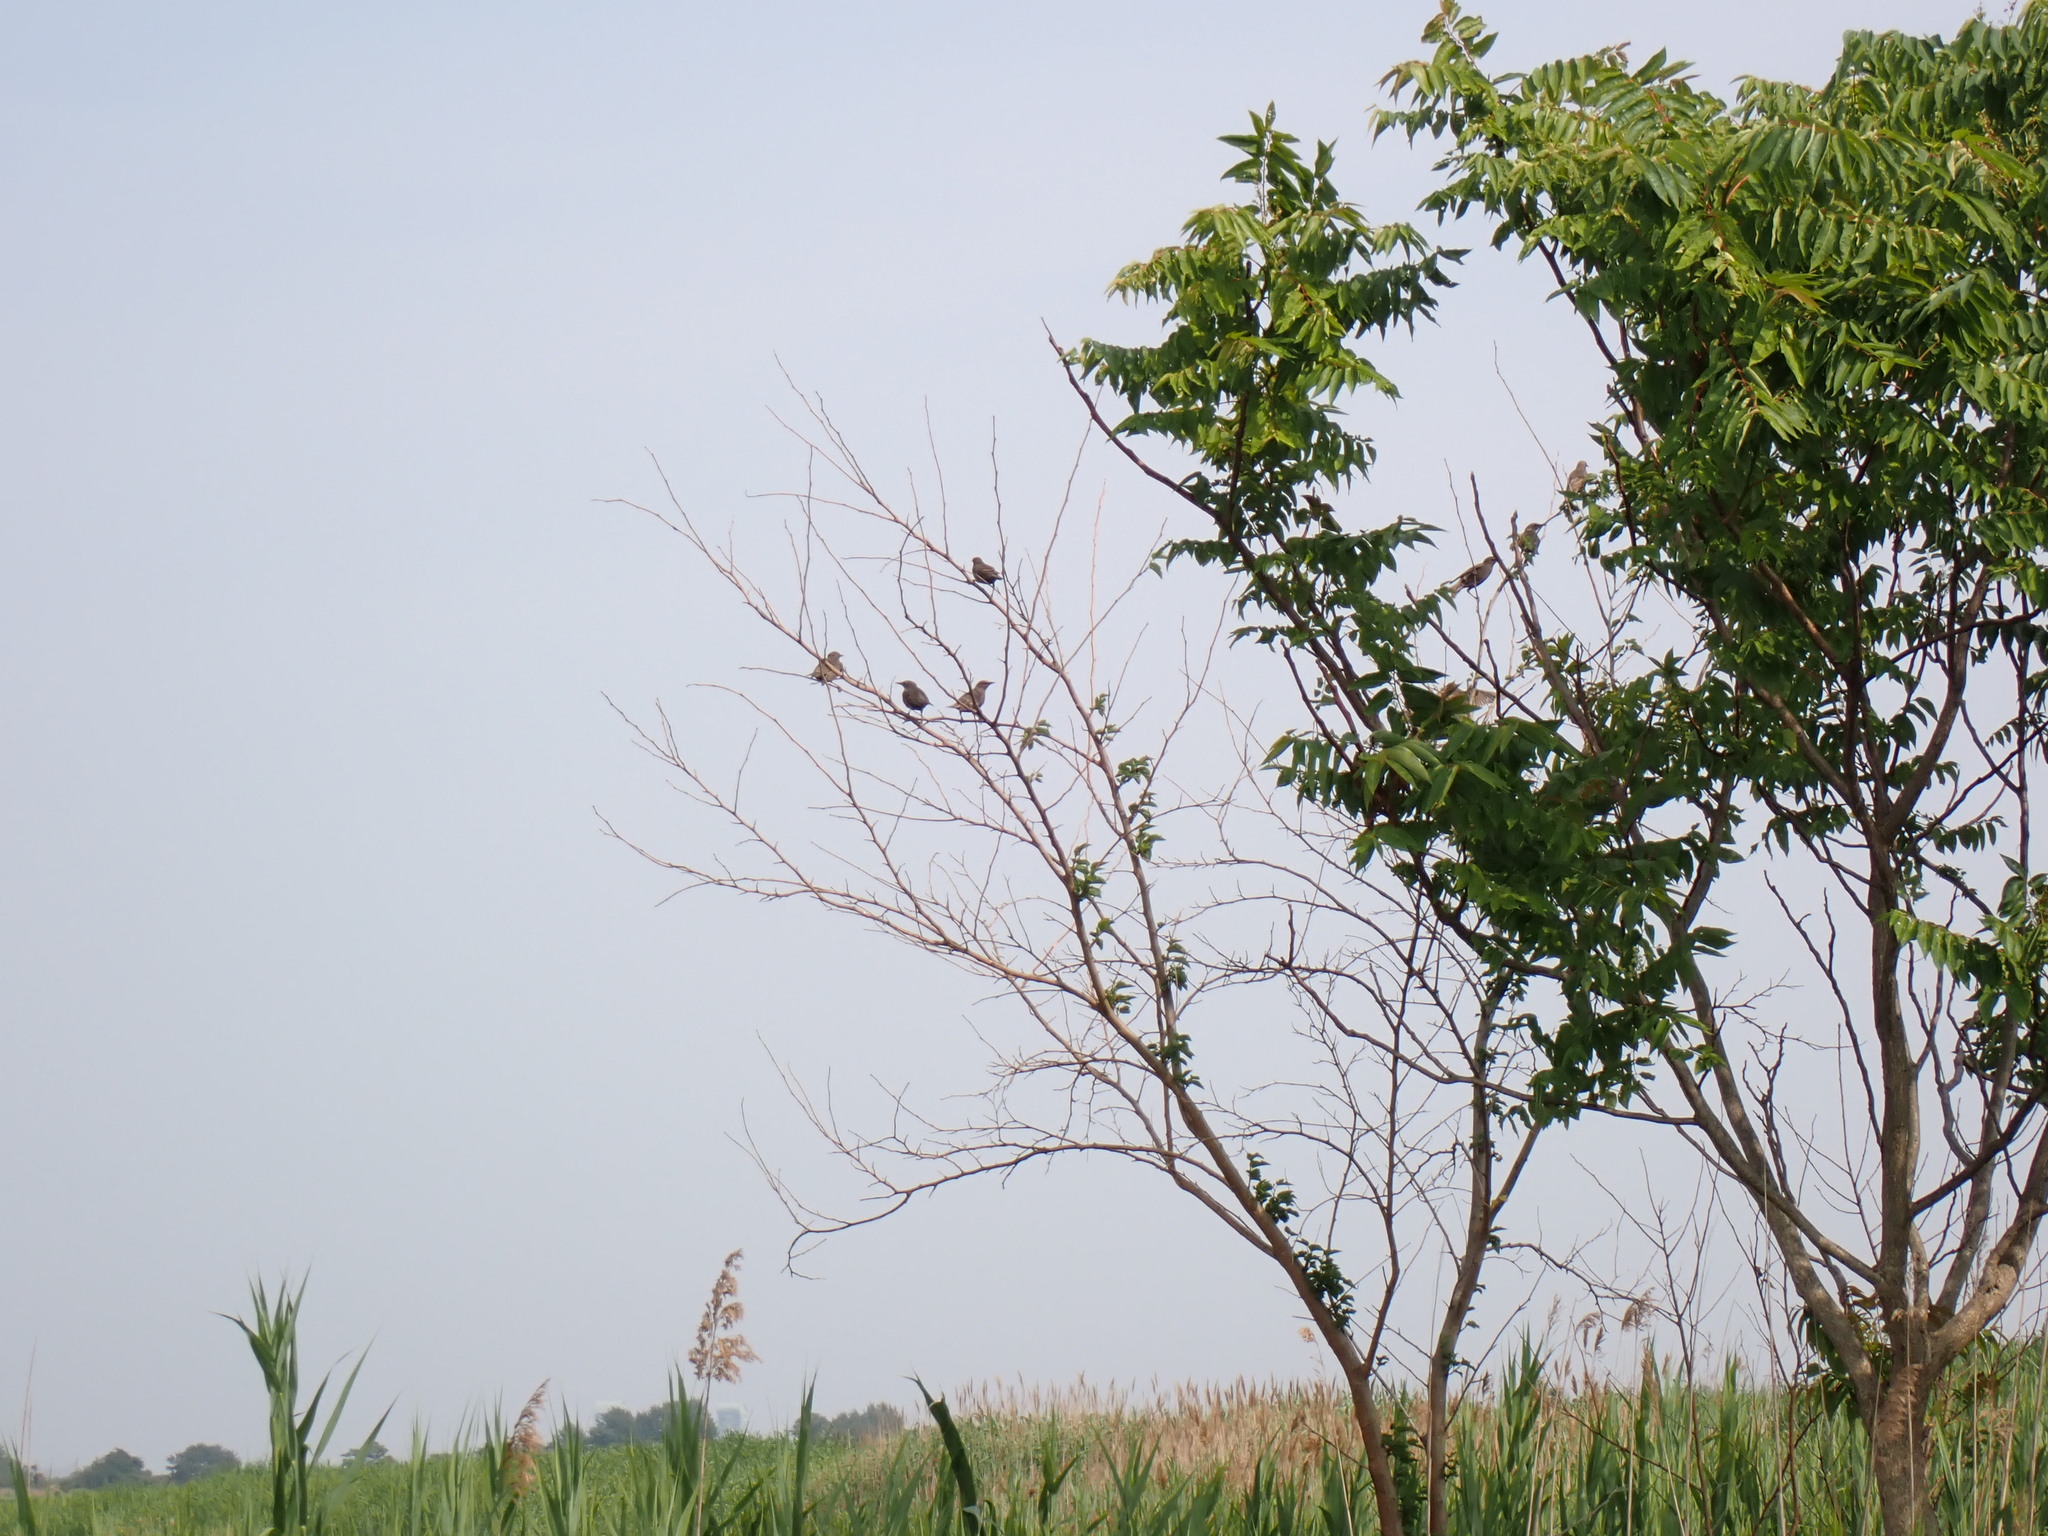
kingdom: Animalia
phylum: Chordata
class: Aves
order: Passeriformes
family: Sturnidae
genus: Sturnus
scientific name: Sturnus vulgaris
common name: Common starling
